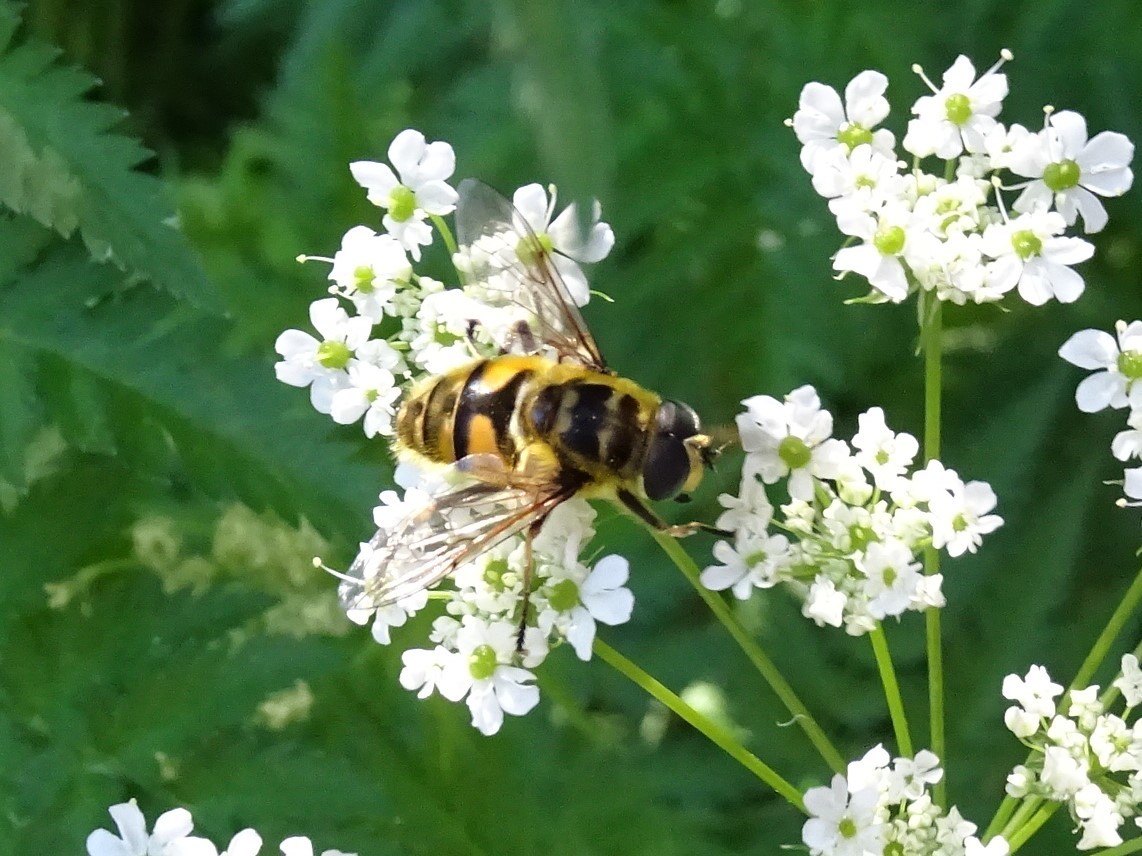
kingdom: Animalia
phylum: Arthropoda
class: Insecta
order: Diptera
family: Syrphidae
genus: Myathropa
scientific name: Myathropa florea
